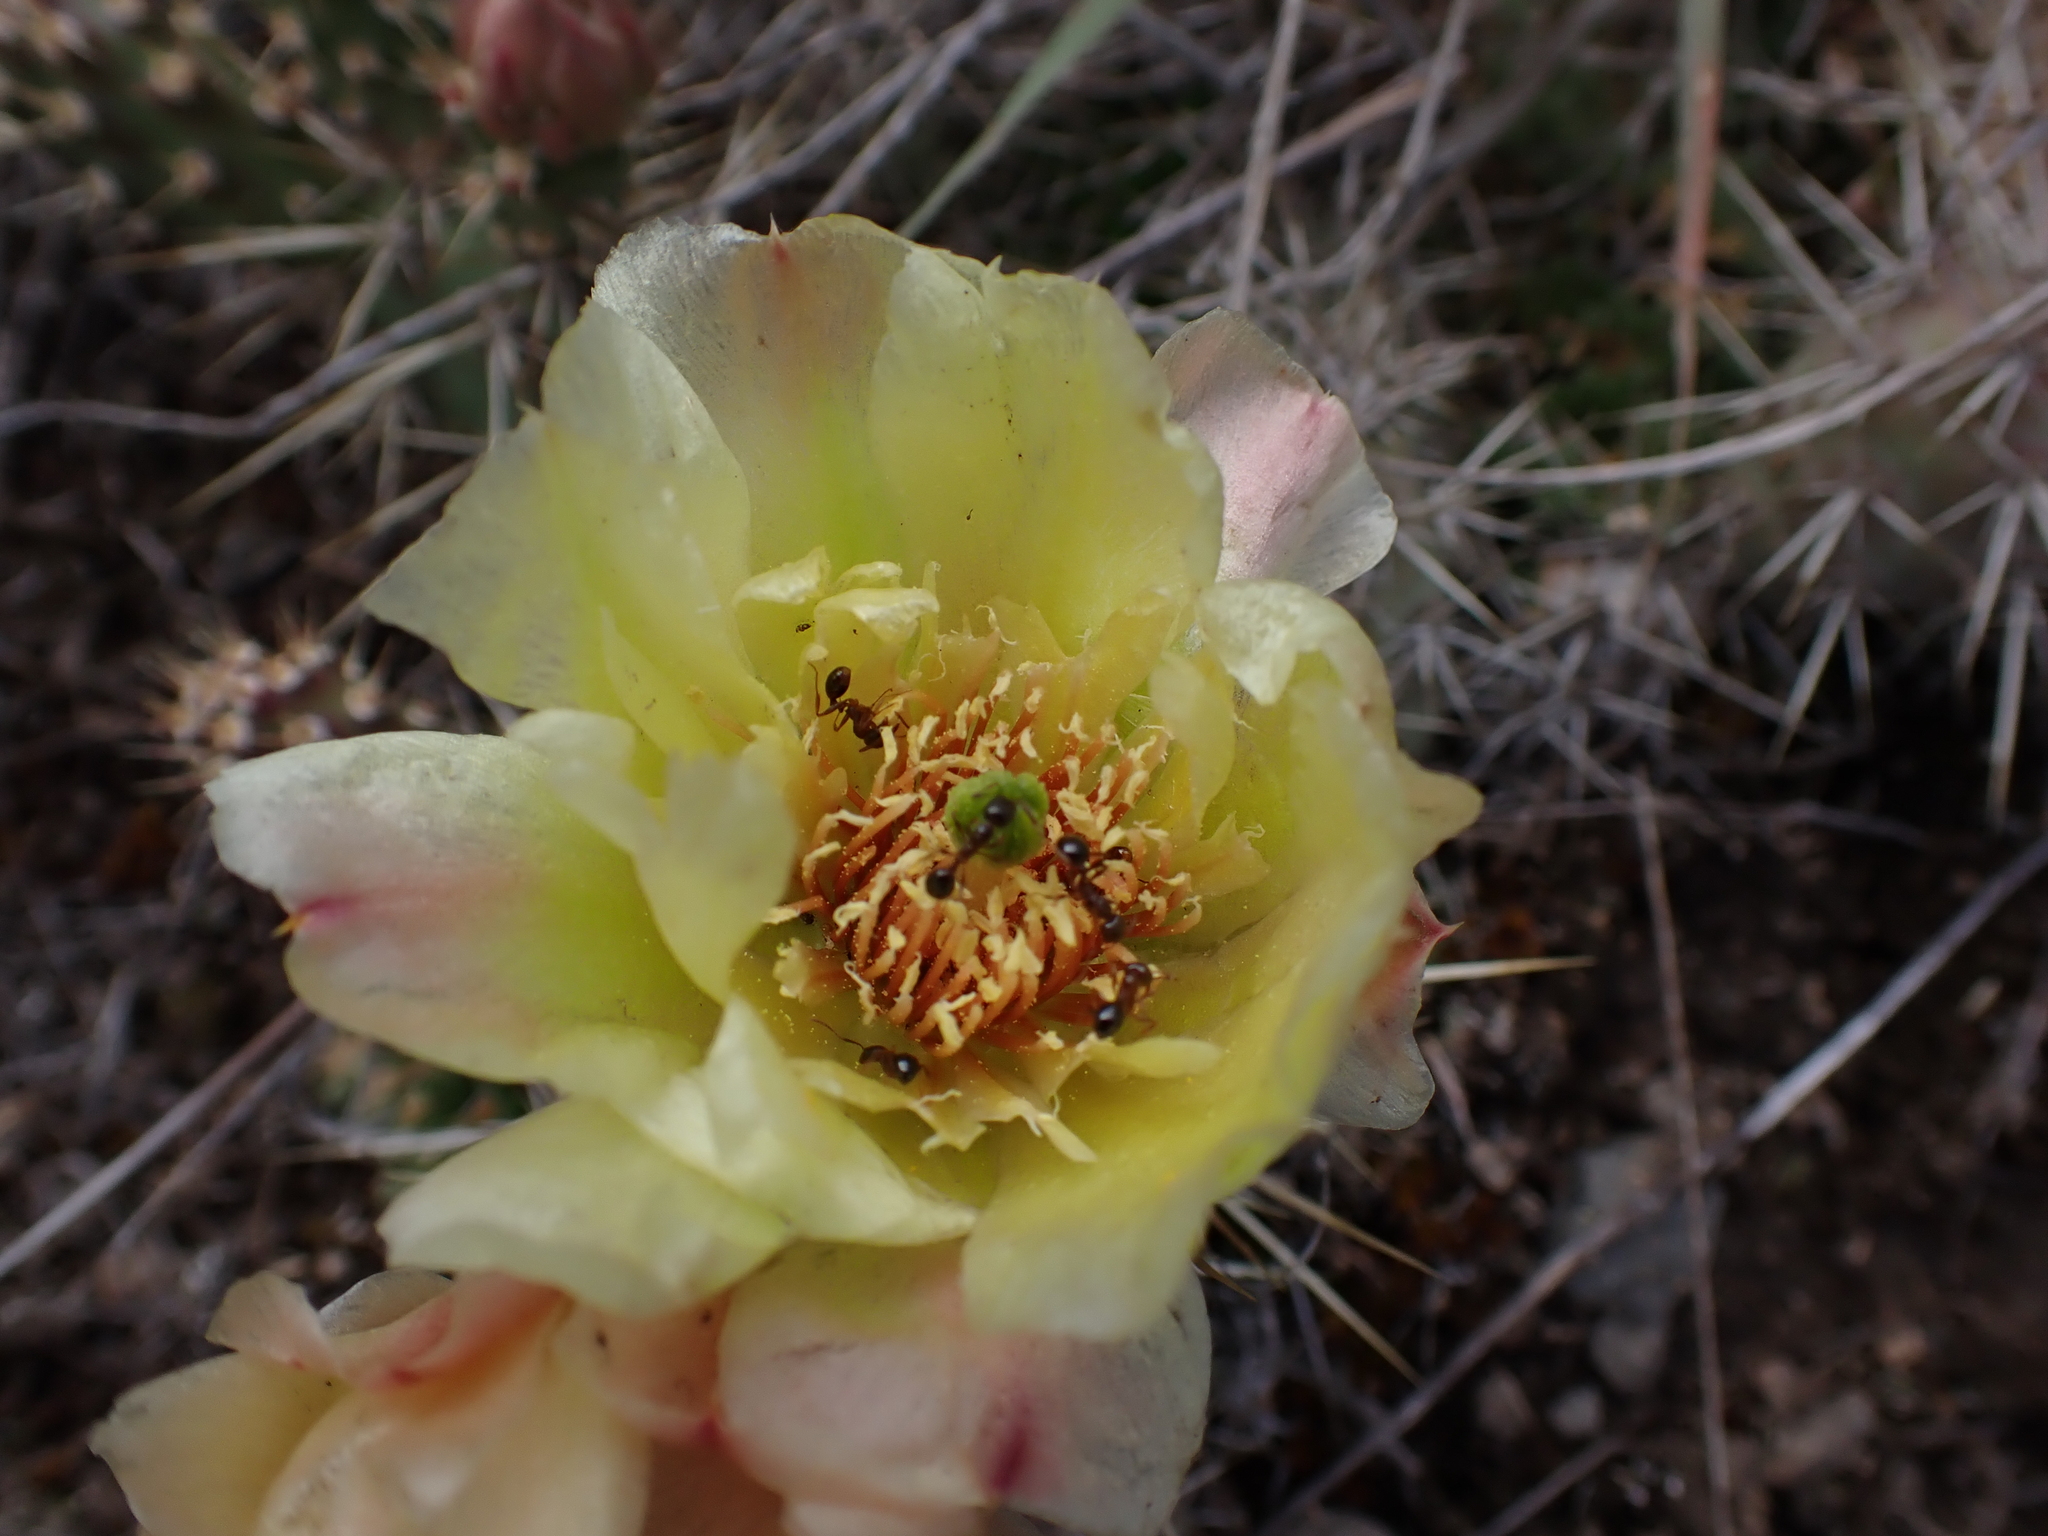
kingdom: Animalia
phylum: Arthropoda
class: Insecta
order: Hymenoptera
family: Formicidae
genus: Aphaenogaster
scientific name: Aphaenogaster occidentalis
